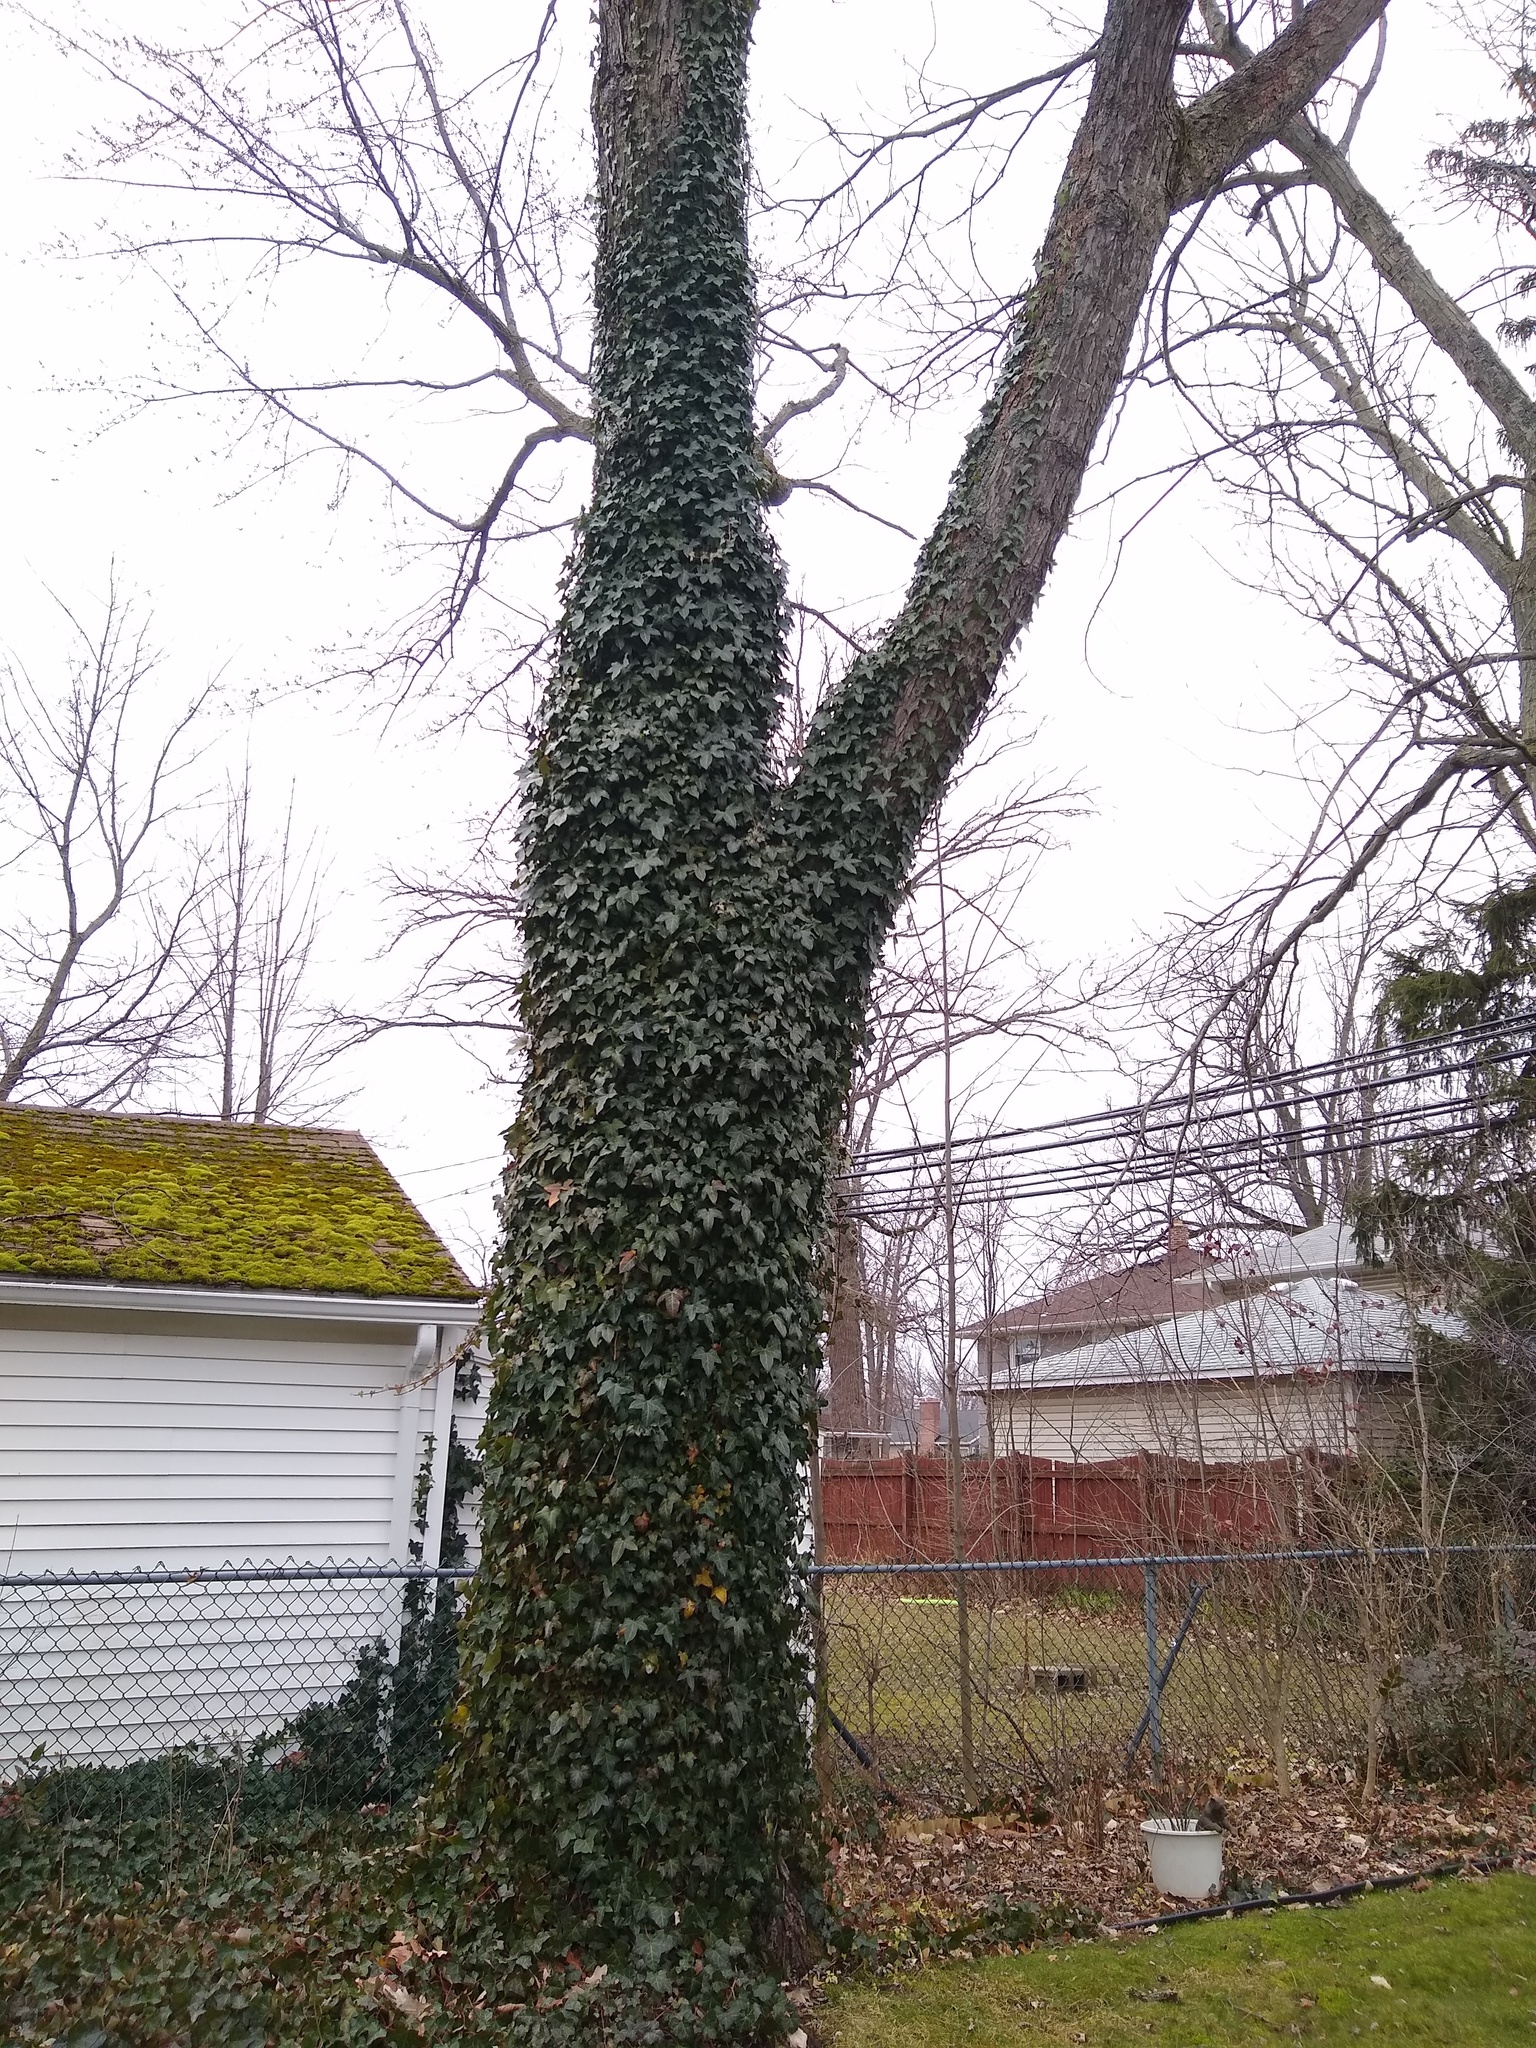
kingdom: Plantae
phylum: Tracheophyta
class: Magnoliopsida
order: Apiales
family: Araliaceae
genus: Hedera
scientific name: Hedera helix
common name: Ivy
